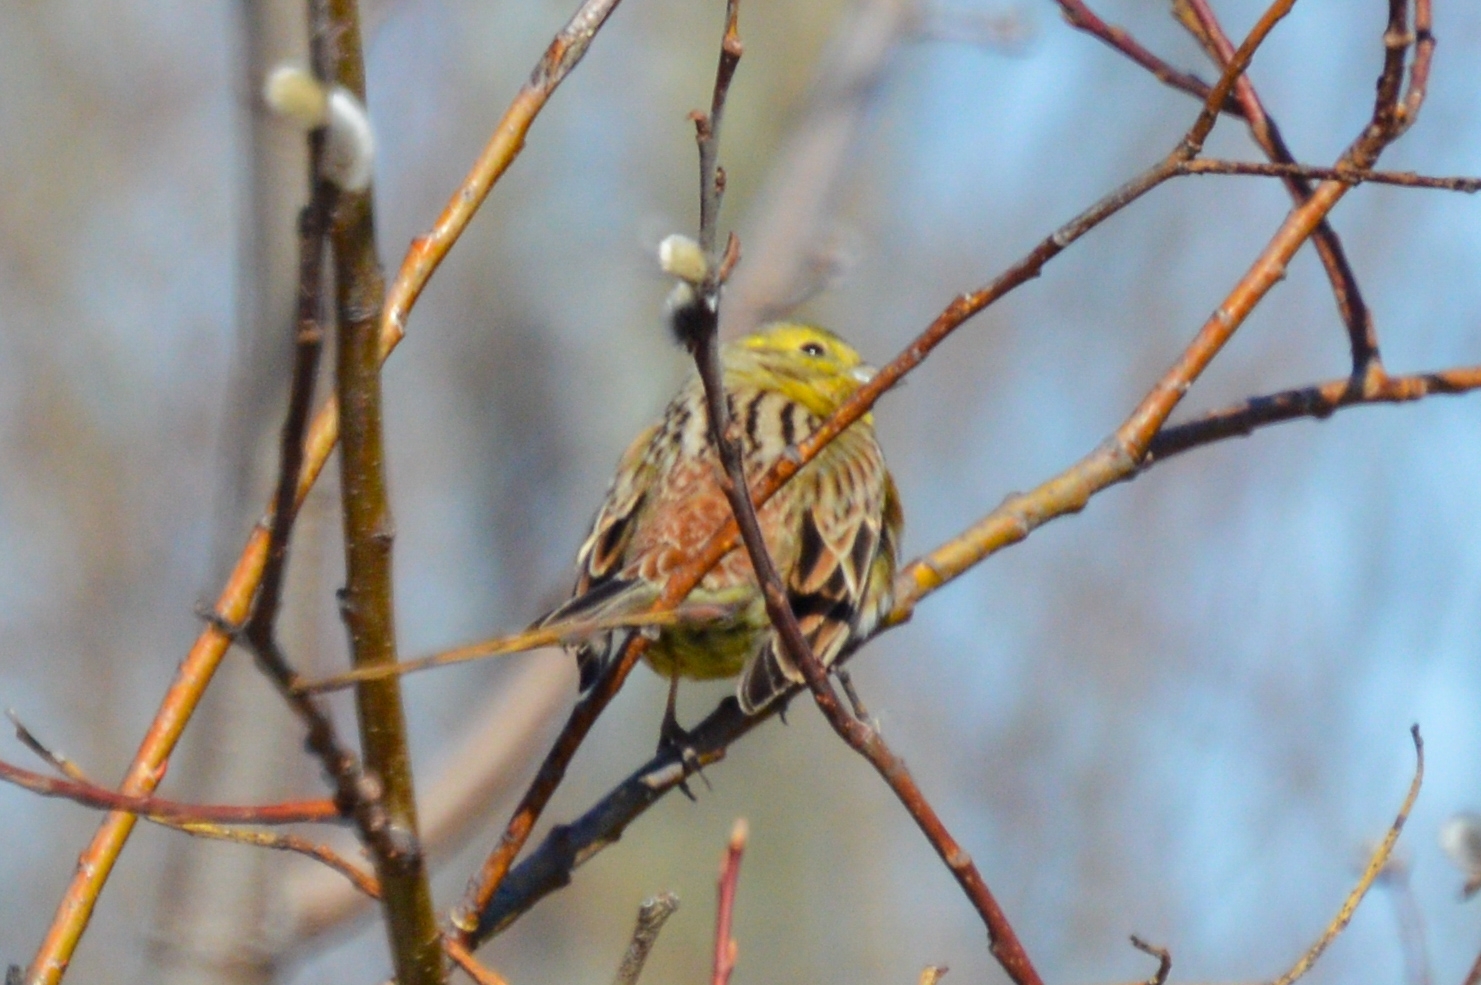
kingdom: Animalia
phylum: Chordata
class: Aves
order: Passeriformes
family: Emberizidae
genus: Emberiza
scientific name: Emberiza citrinella
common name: Yellowhammer
